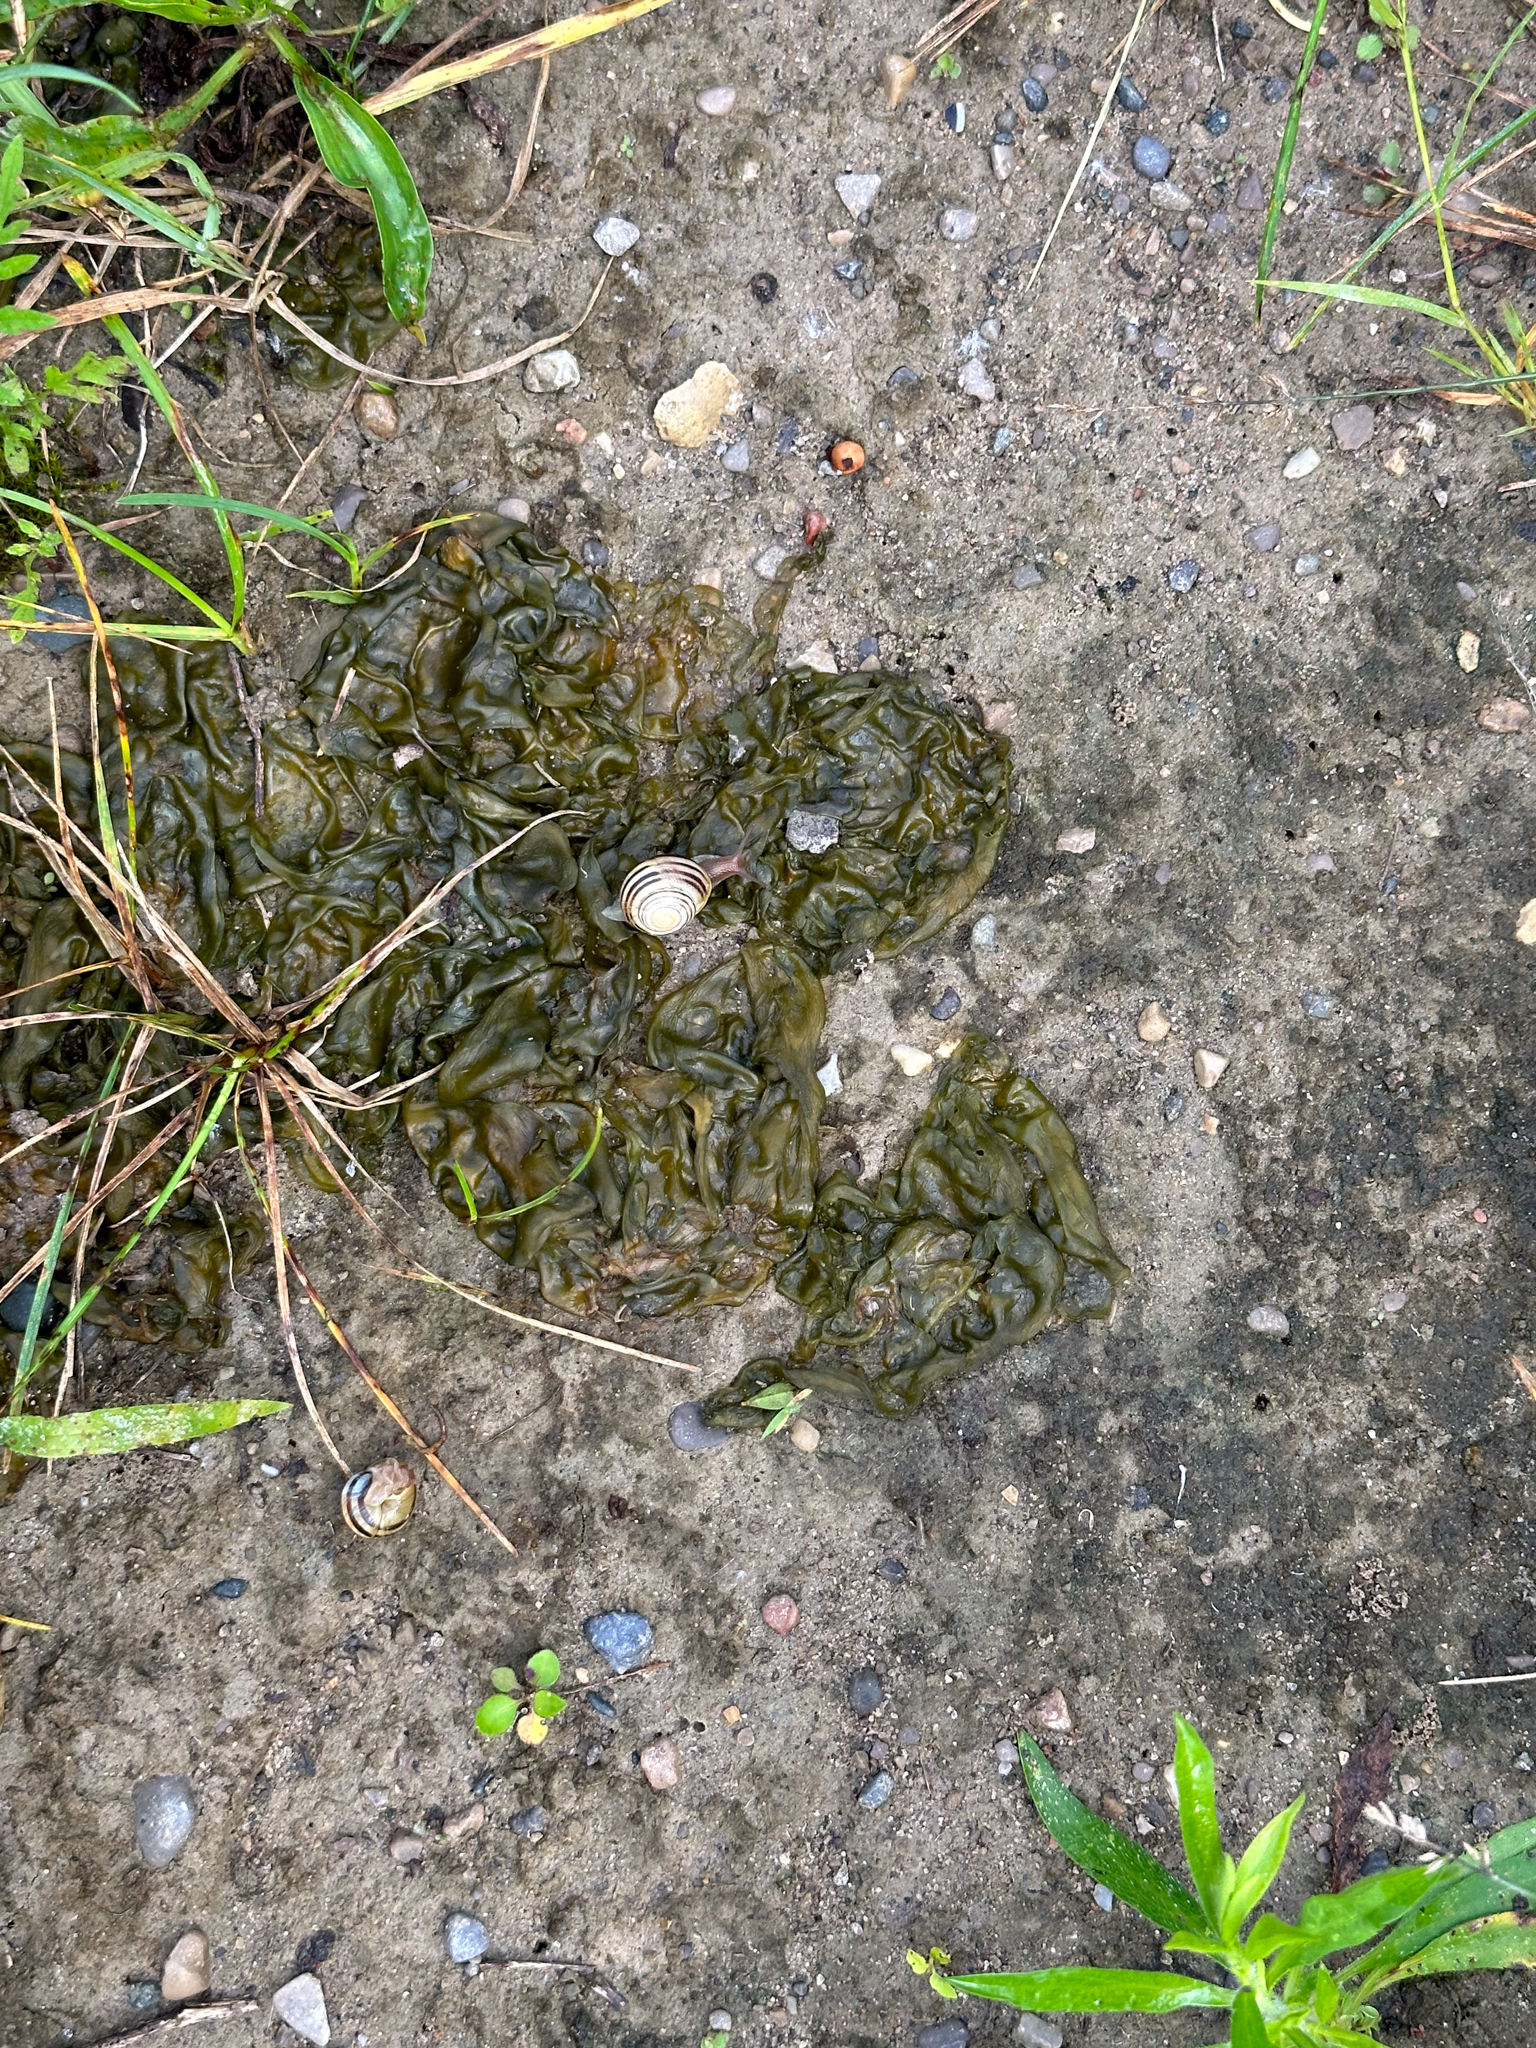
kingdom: Bacteria
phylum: Cyanobacteria
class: Cyanobacteriia
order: Cyanobacteriales
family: Nostocaceae
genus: Nostoc
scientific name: Nostoc commune
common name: Star jelly
